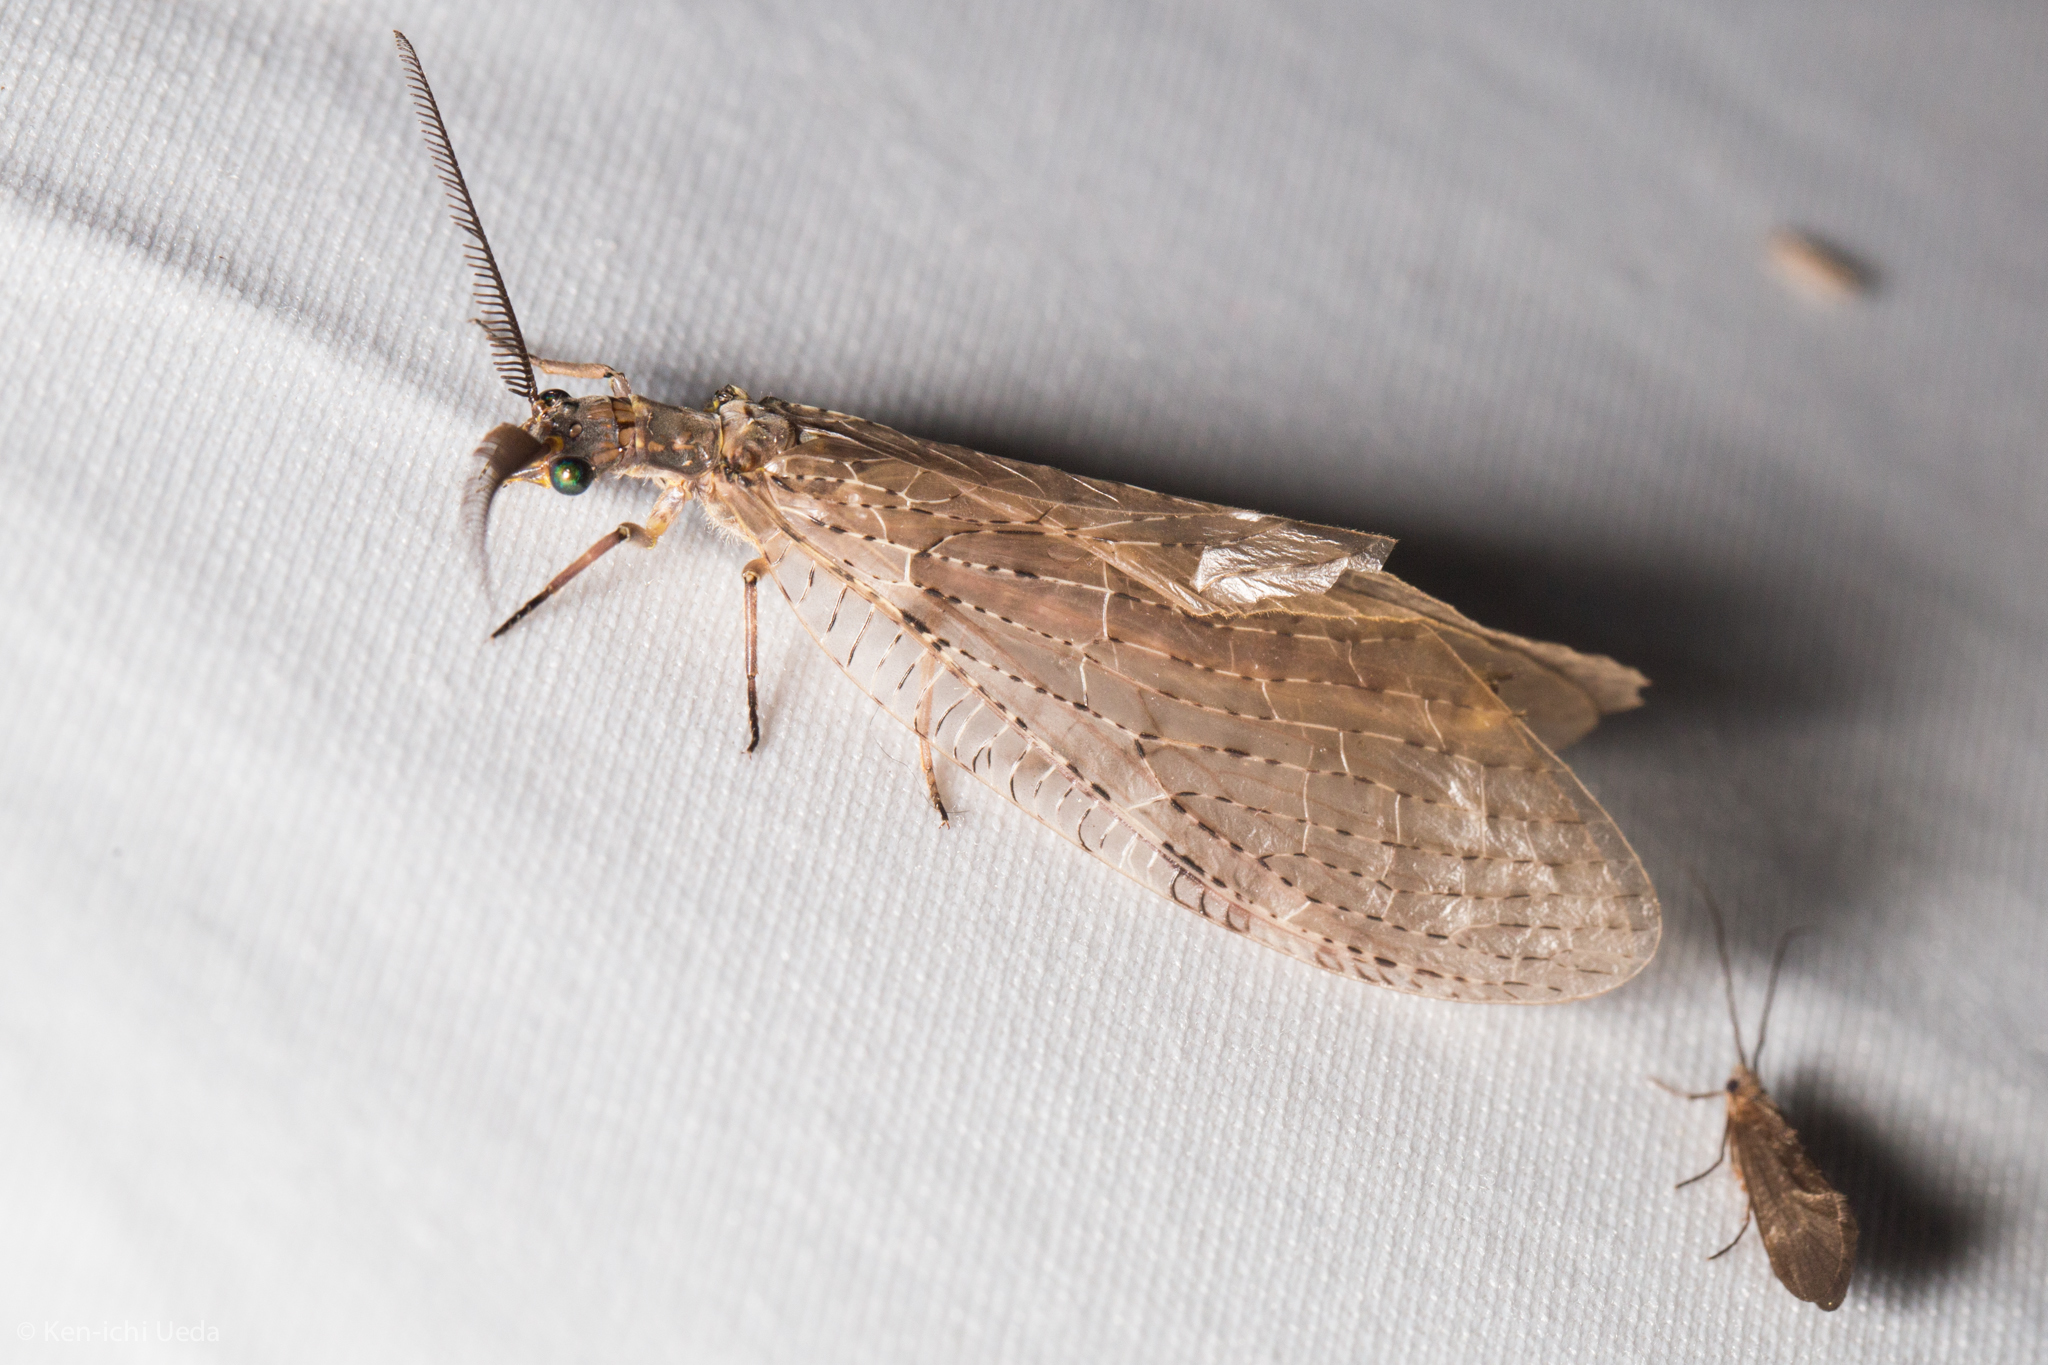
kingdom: Animalia
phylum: Arthropoda
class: Insecta
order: Megaloptera
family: Corydalidae
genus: Chauliodes
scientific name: Chauliodes pectinicornis
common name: Summer fishfly
